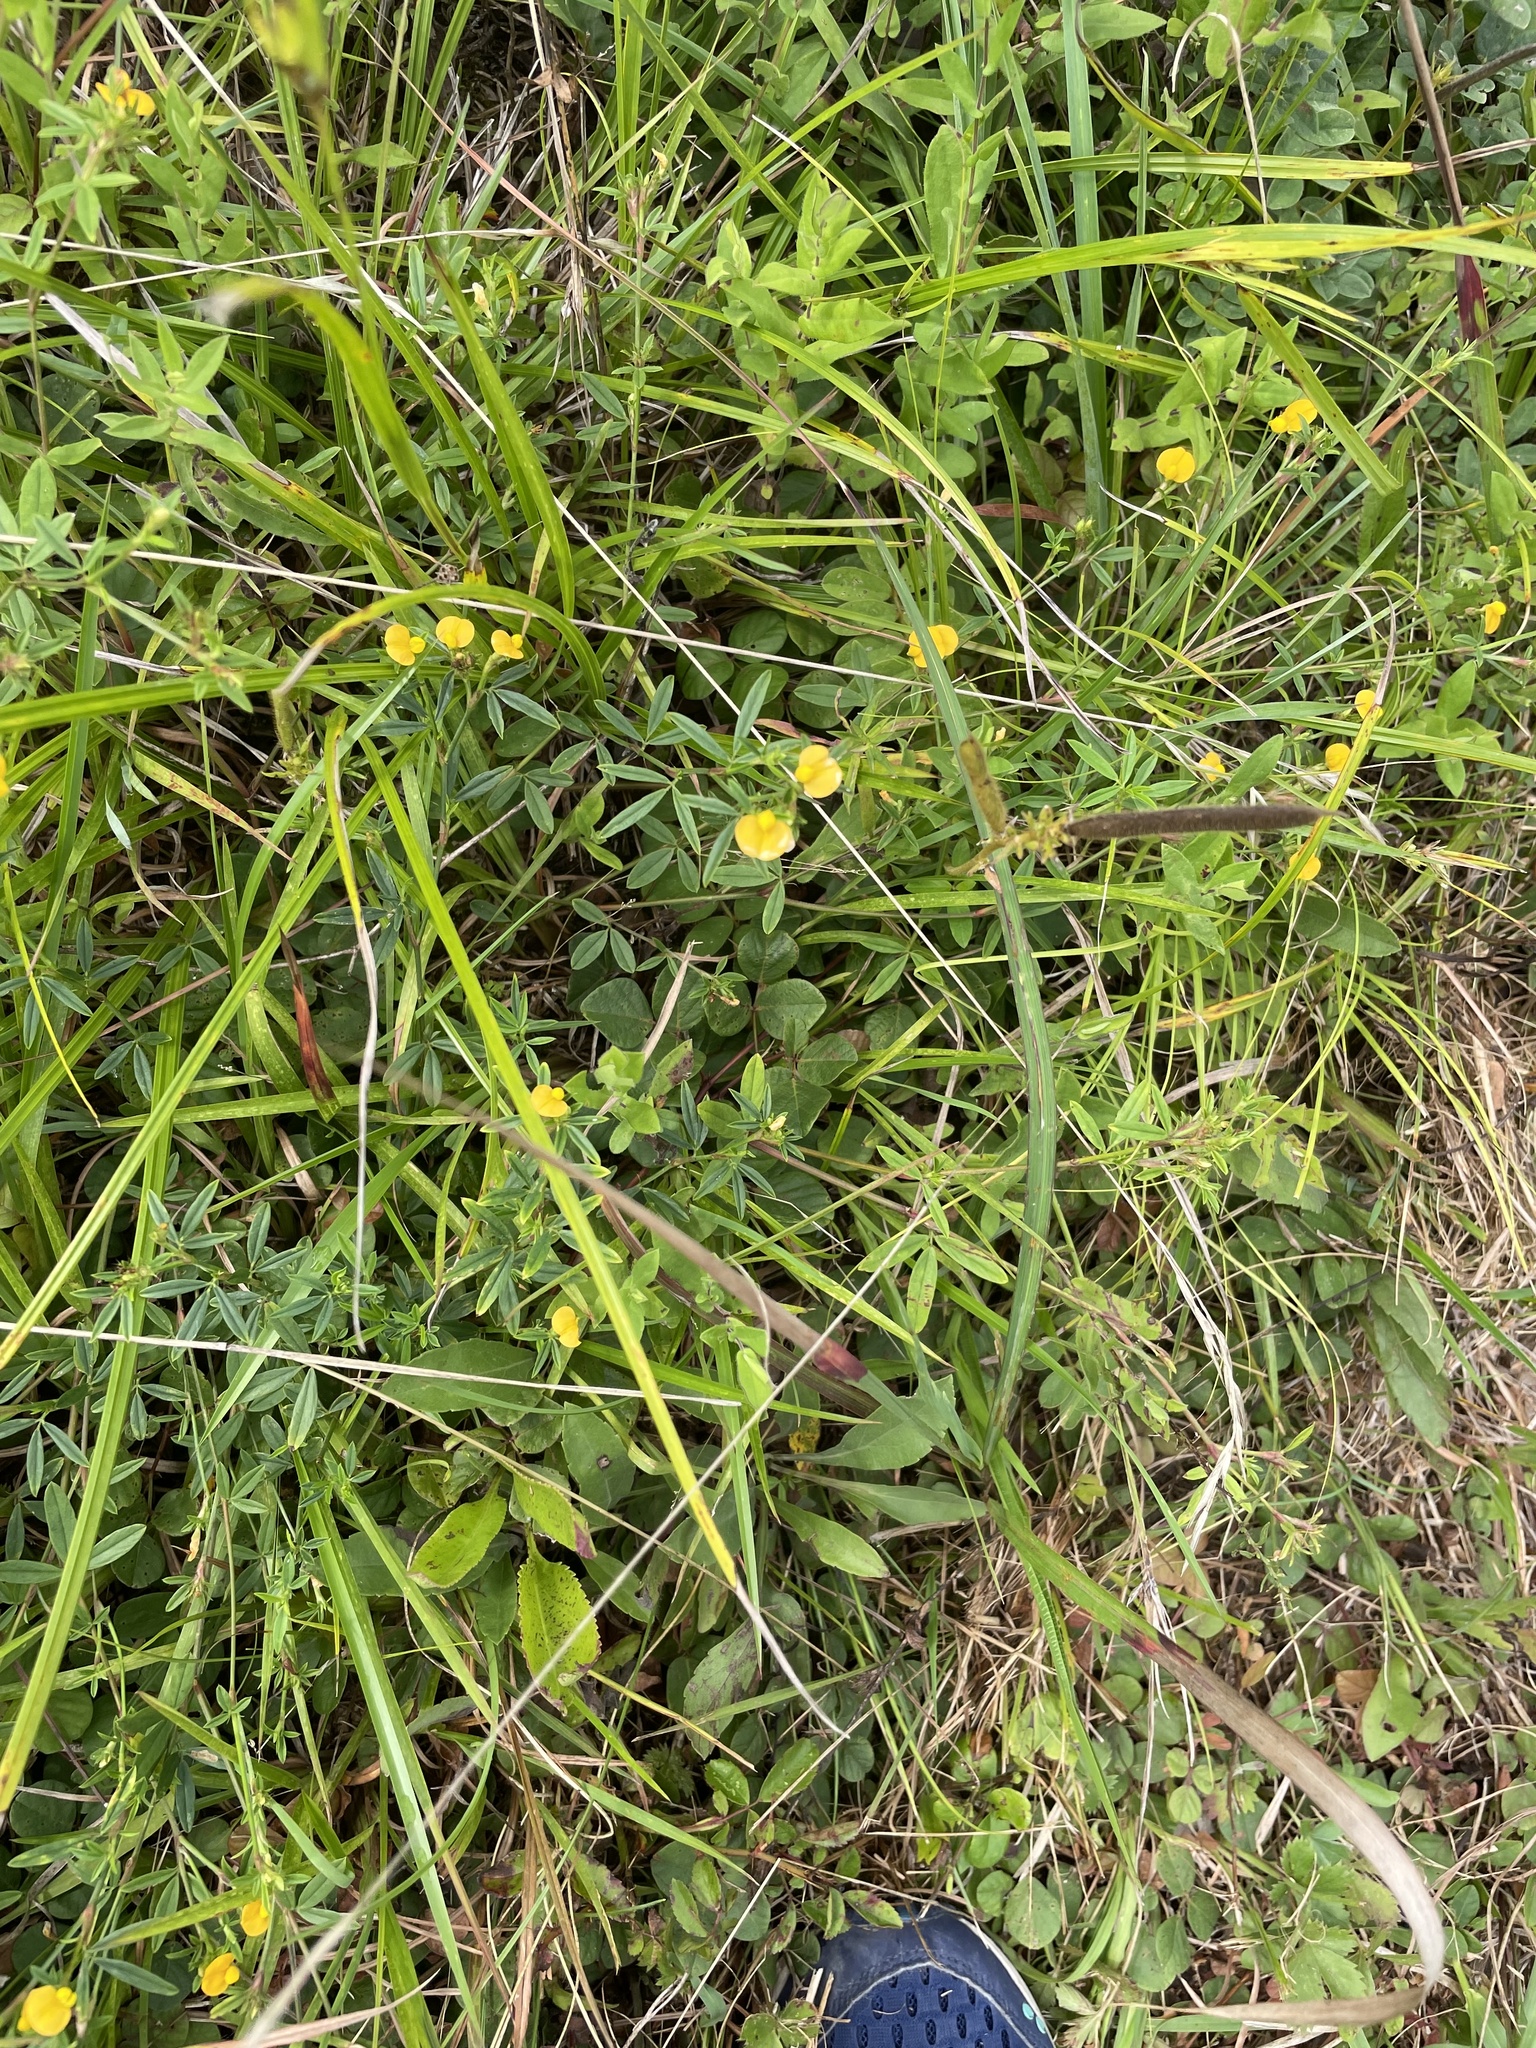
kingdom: Plantae
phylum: Tracheophyta
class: Magnoliopsida
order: Fabales
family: Fabaceae
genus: Stylosanthes
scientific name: Stylosanthes biflora
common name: Two-flower pencil-flower
